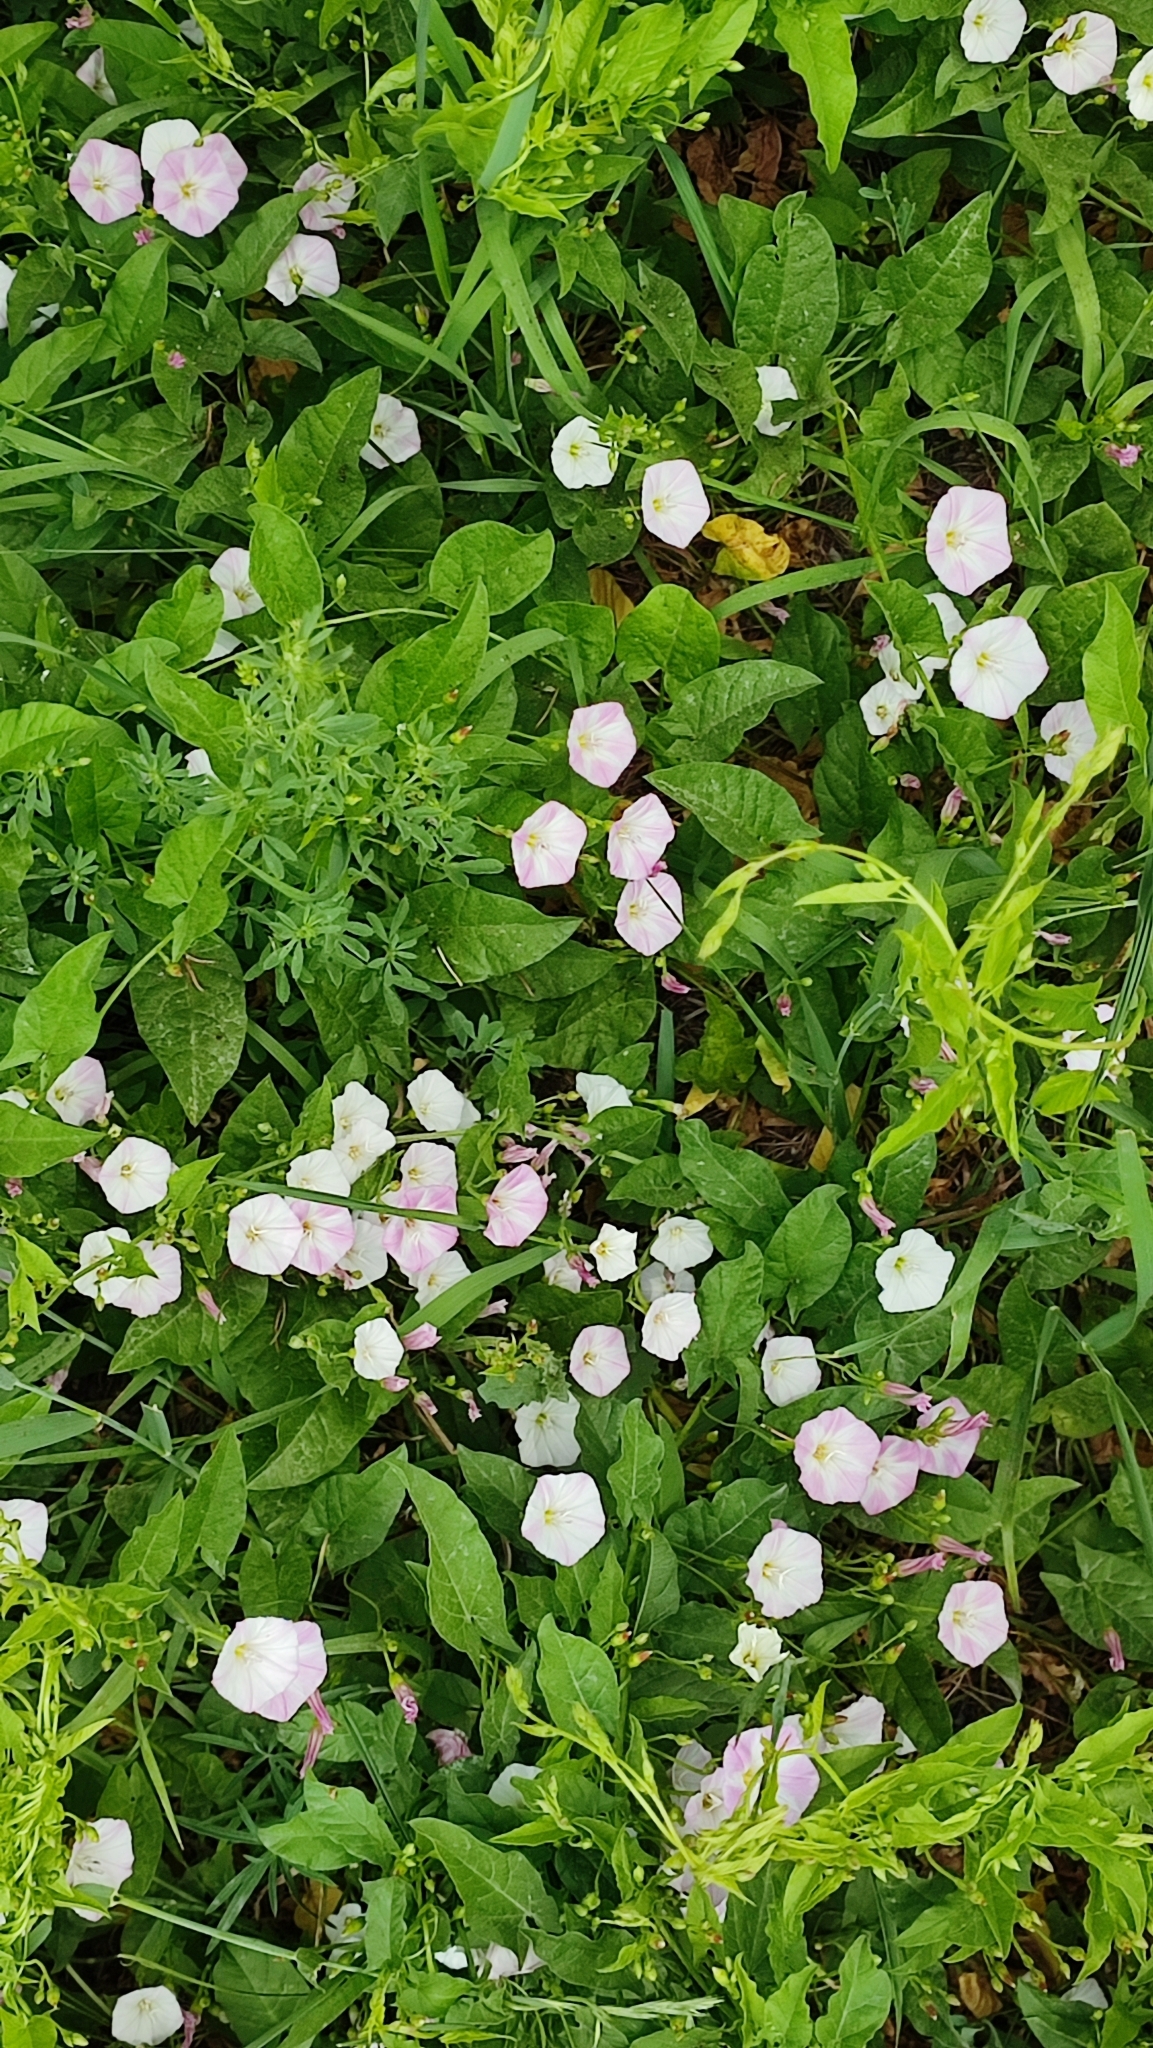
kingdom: Plantae
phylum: Tracheophyta
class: Magnoliopsida
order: Solanales
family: Convolvulaceae
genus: Convolvulus
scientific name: Convolvulus arvensis
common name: Field bindweed
